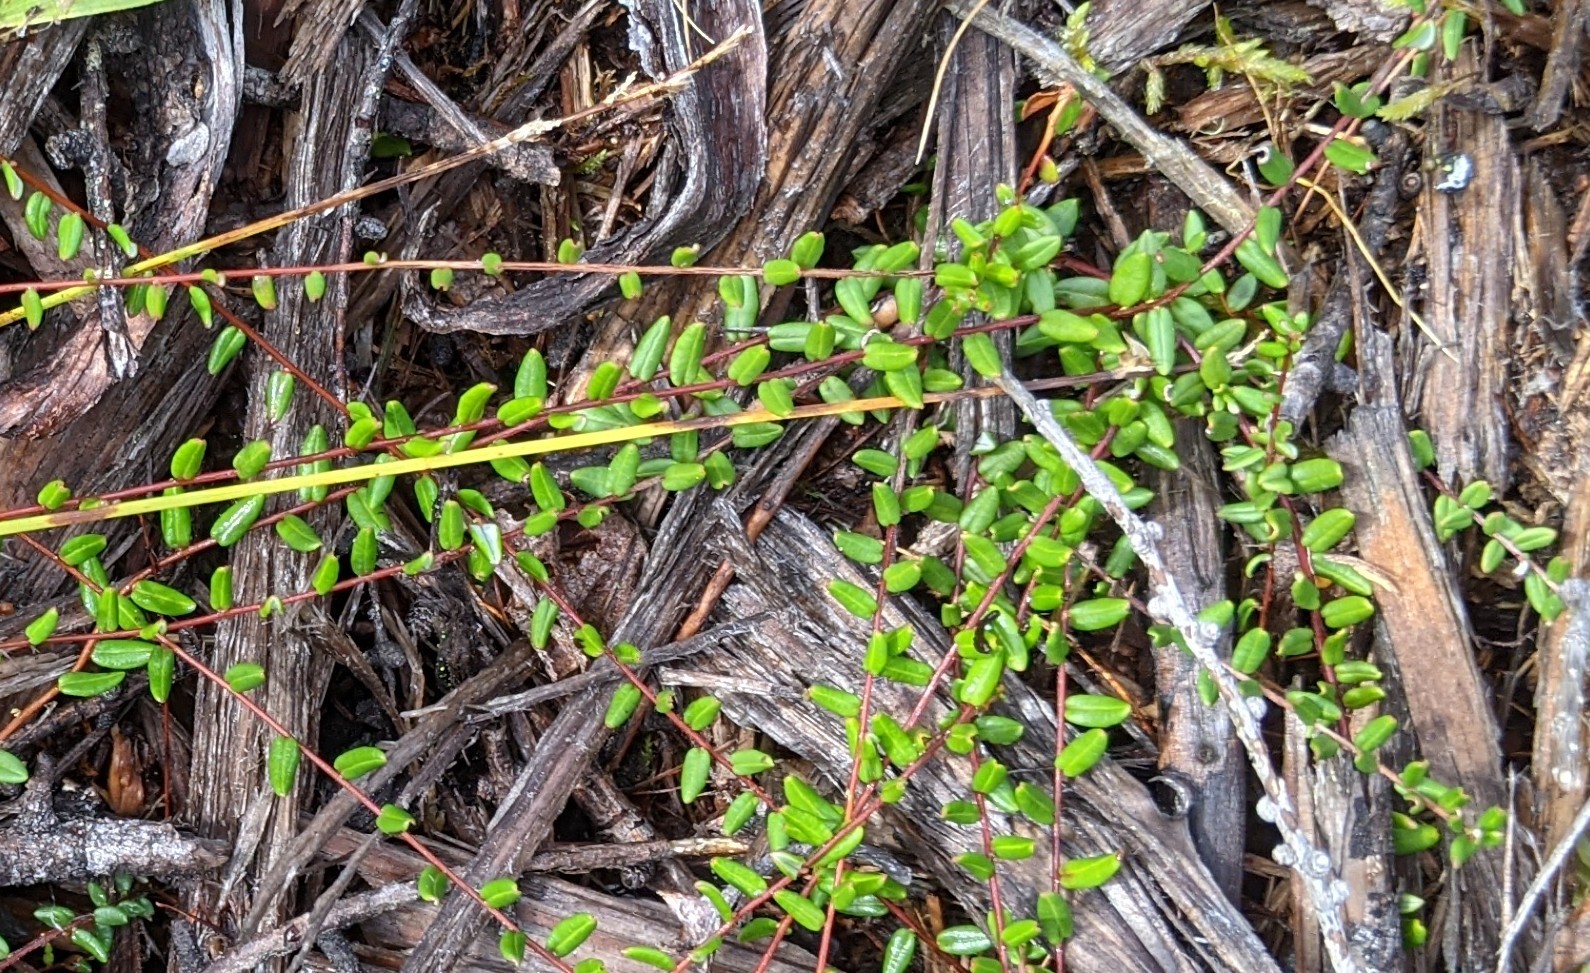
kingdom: Plantae
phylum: Tracheophyta
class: Magnoliopsida
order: Ericales
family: Ericaceae
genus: Vaccinium
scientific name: Vaccinium oxycoccos
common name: Cranberry
